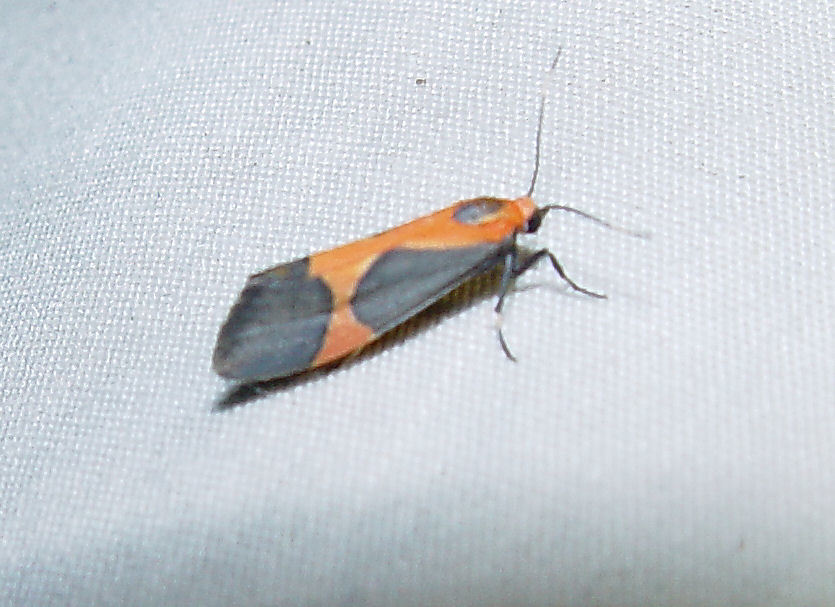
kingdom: Animalia
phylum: Arthropoda
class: Insecta
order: Lepidoptera
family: Erebidae
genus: Cisthene
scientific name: Cisthene martini
